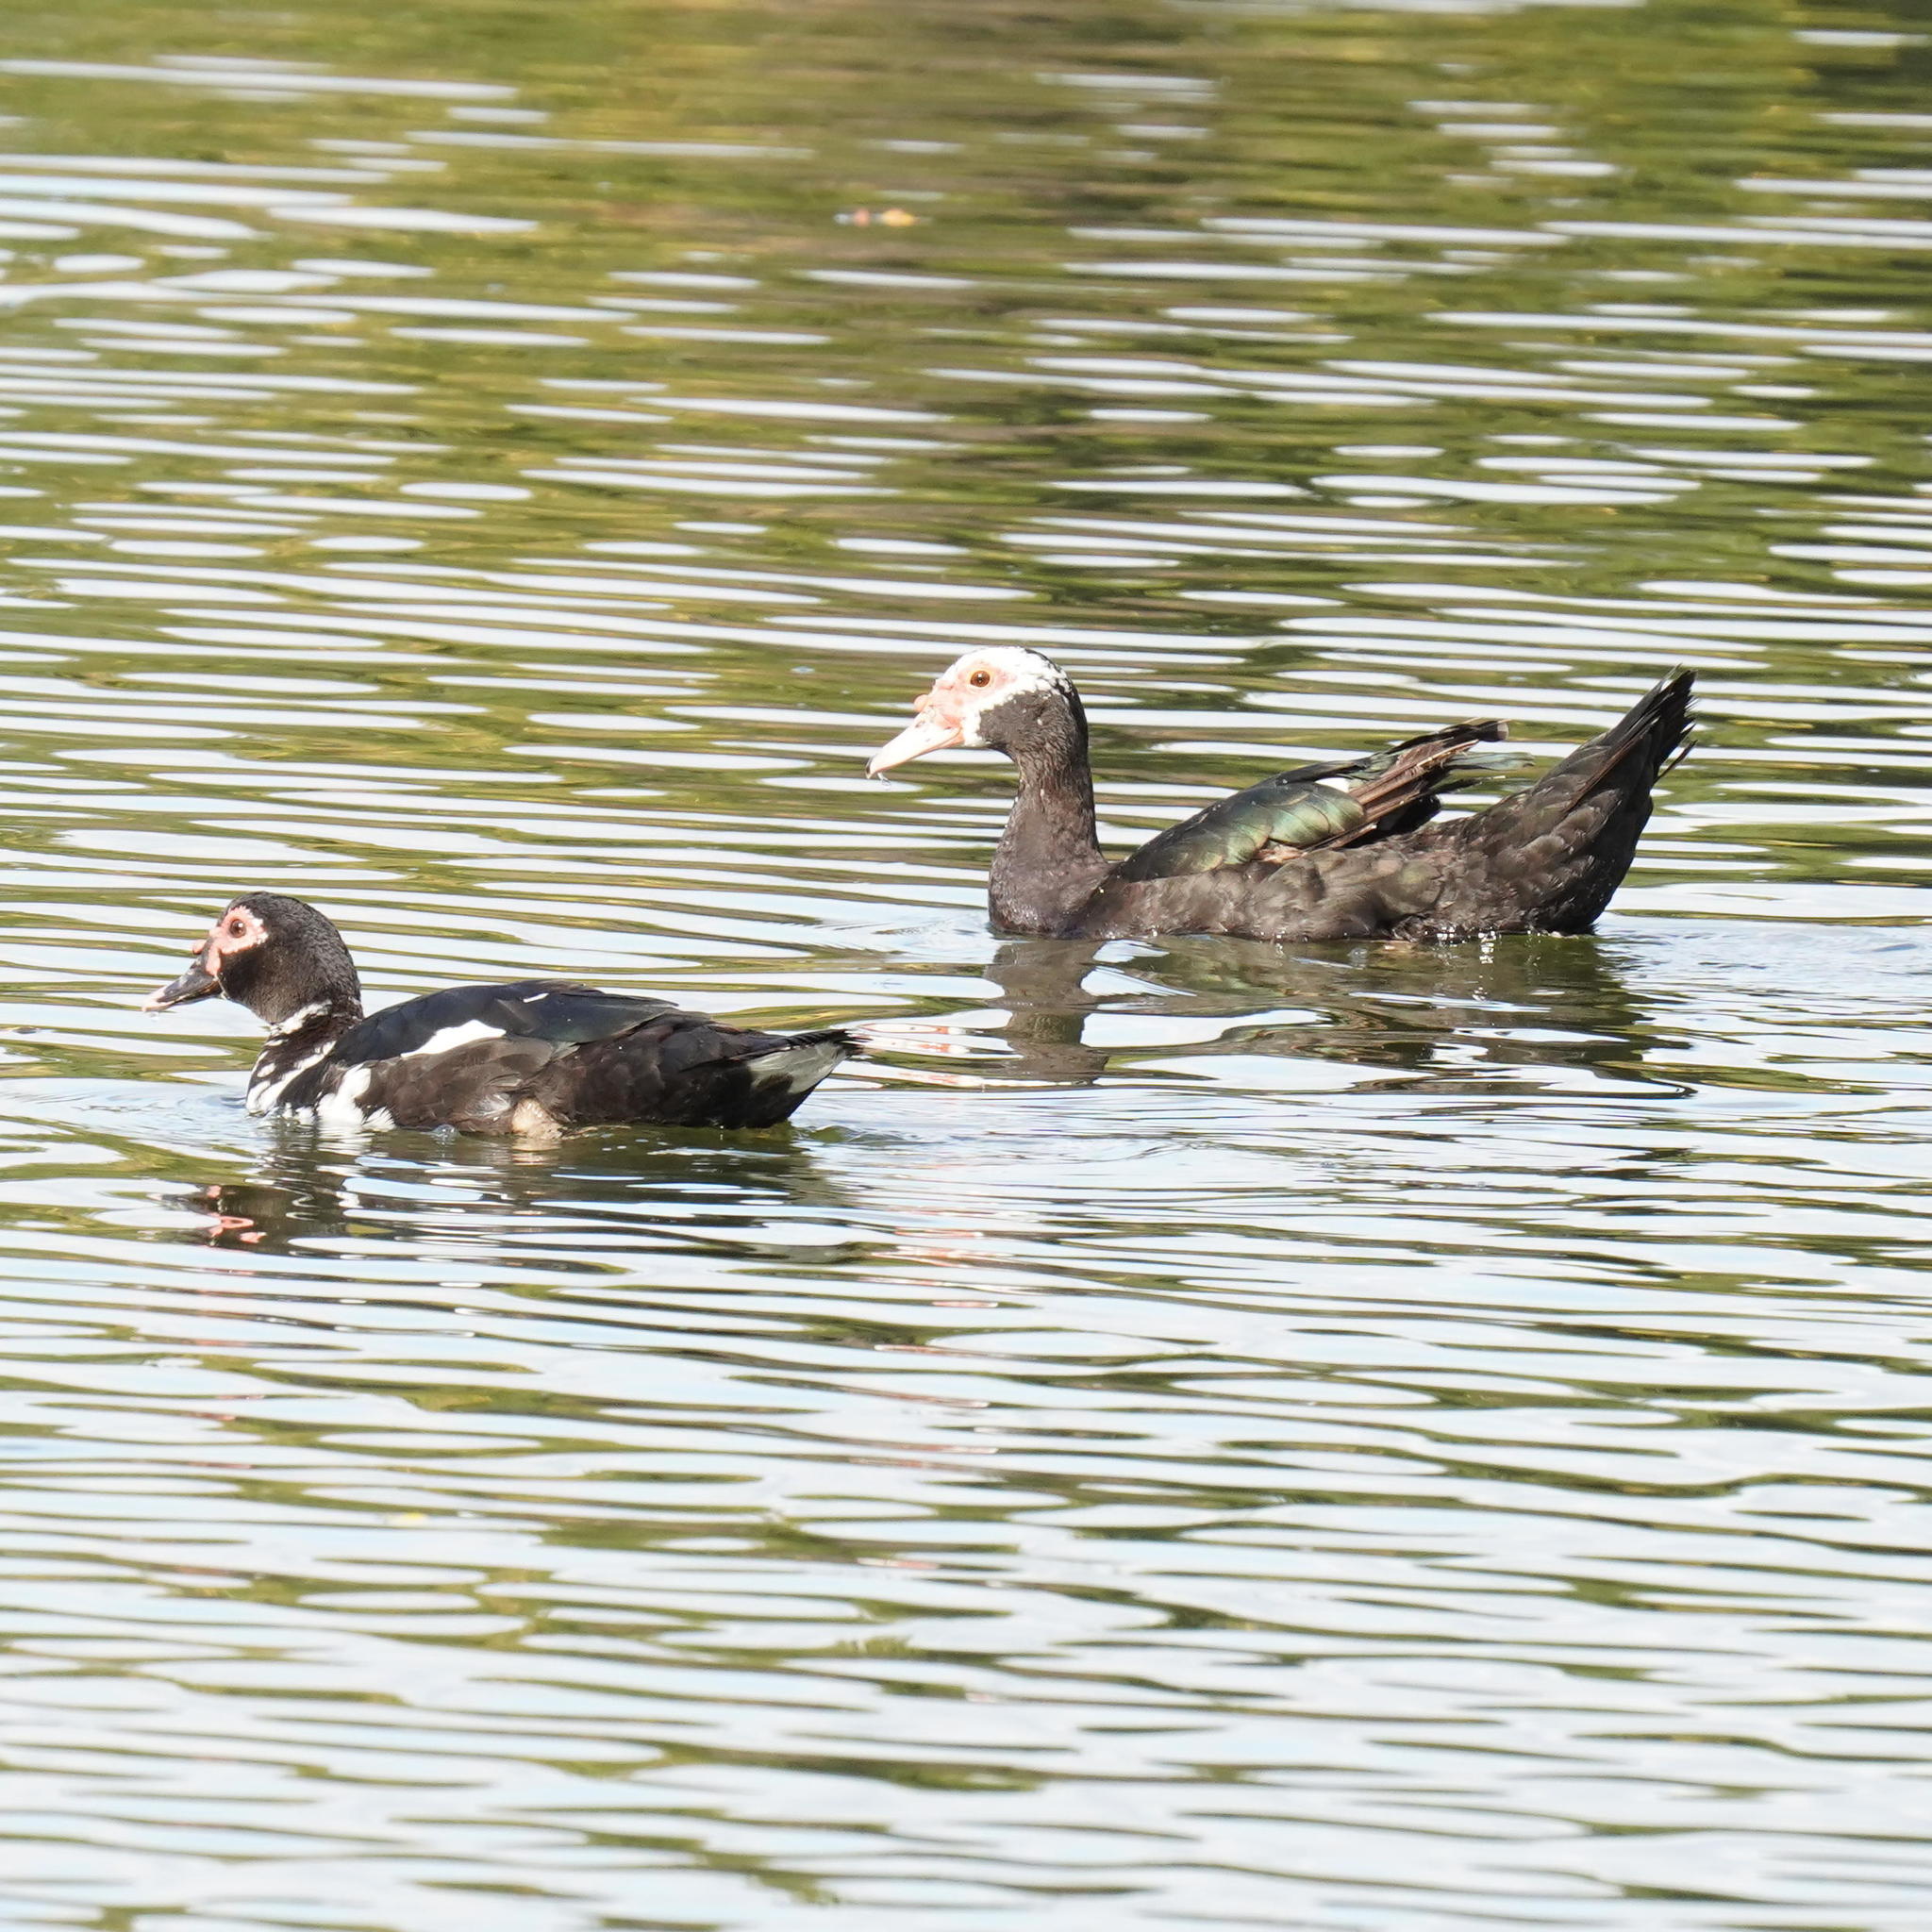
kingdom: Animalia
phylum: Chordata
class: Aves
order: Anseriformes
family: Anatidae
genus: Cairina
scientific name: Cairina moschata
